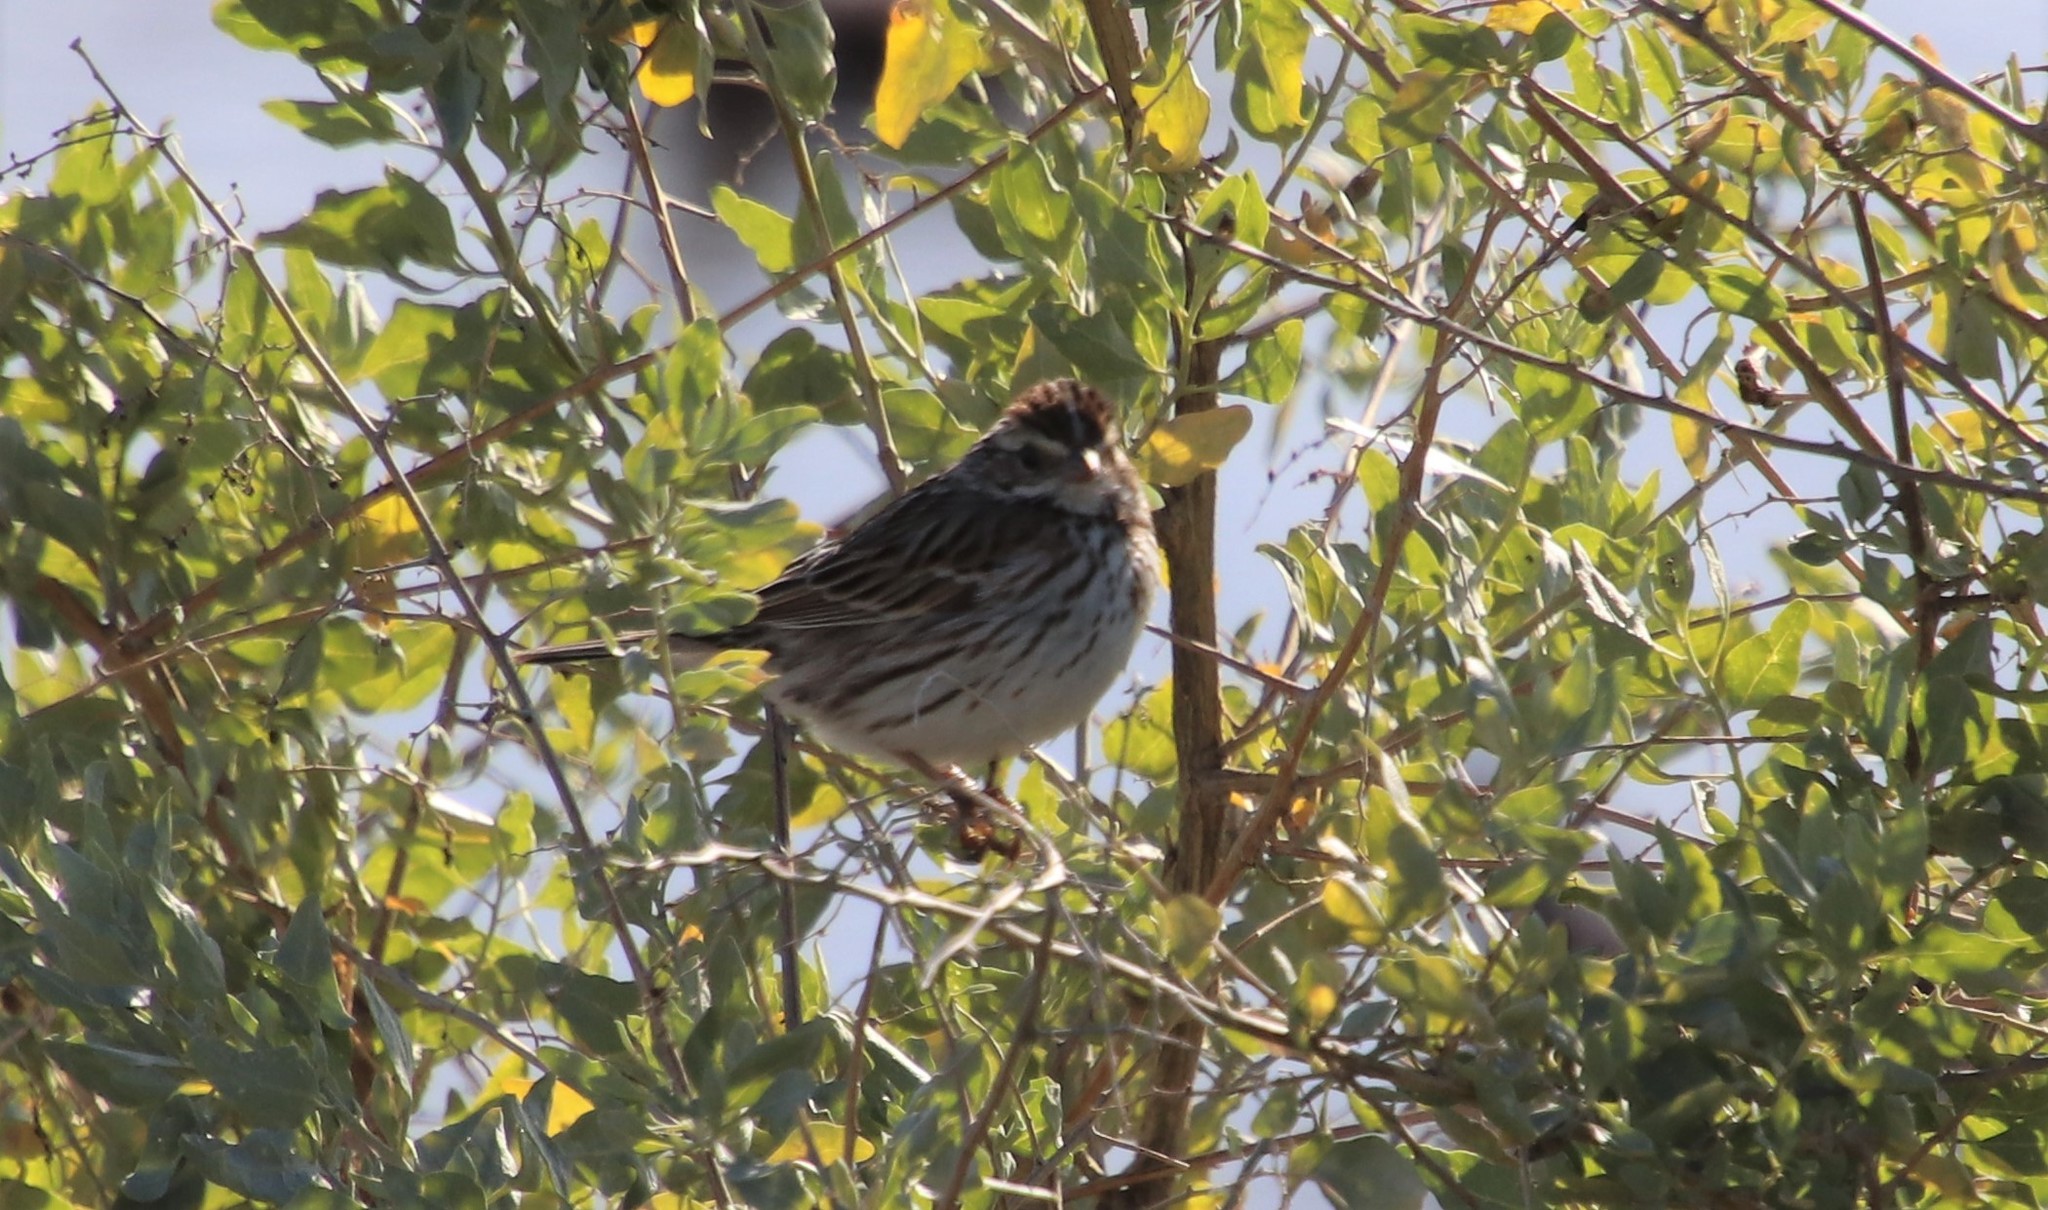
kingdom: Animalia
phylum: Chordata
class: Aves
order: Passeriformes
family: Passerellidae
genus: Passerculus
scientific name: Passerculus sandwichensis
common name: Savannah sparrow
